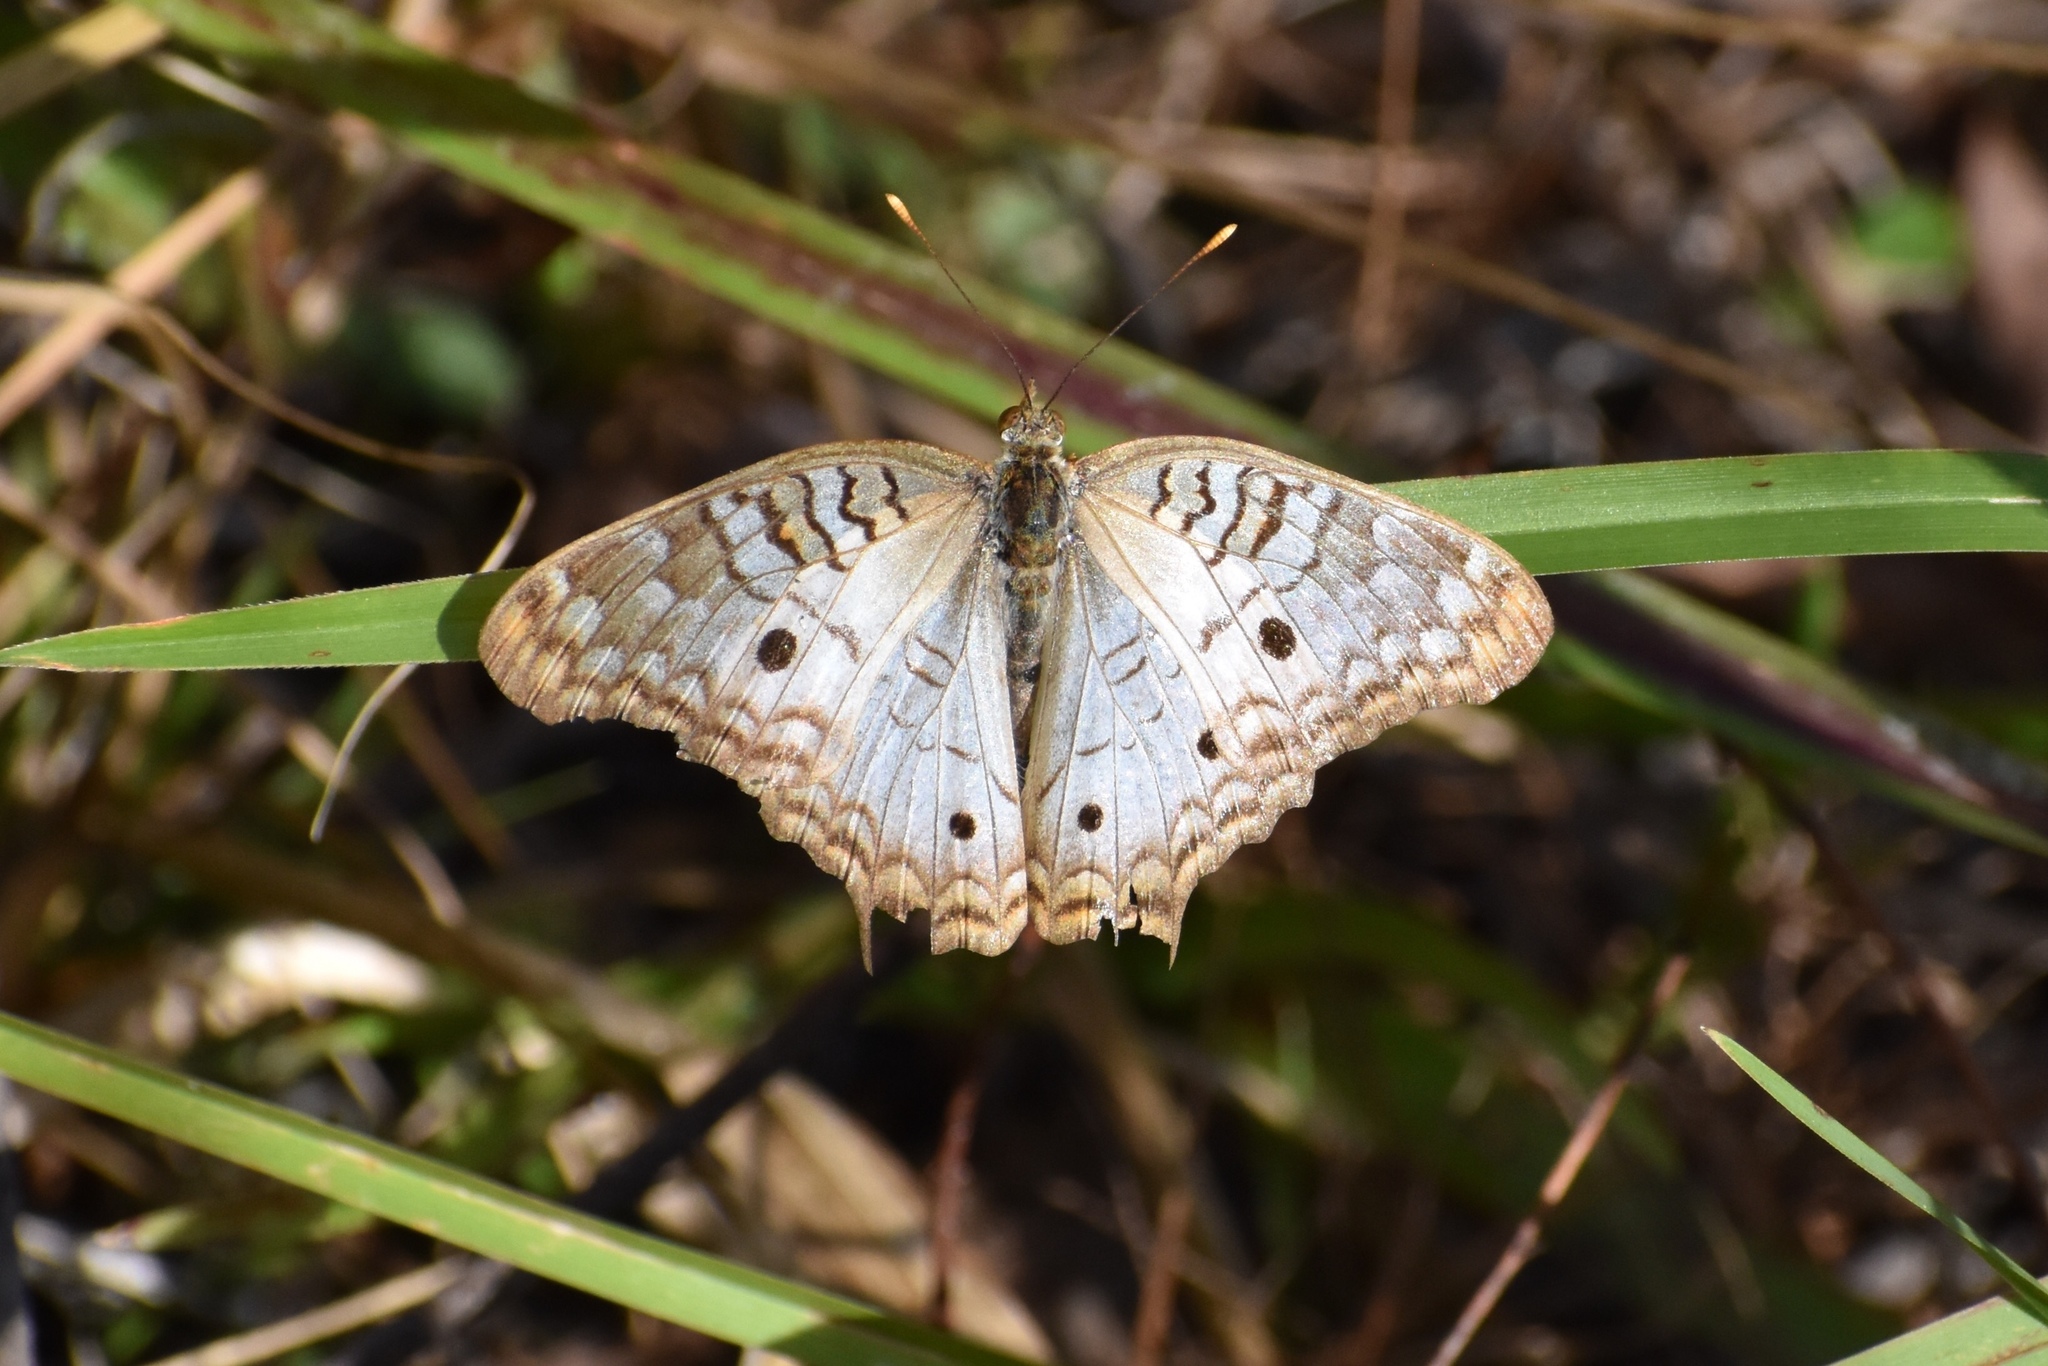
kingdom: Animalia
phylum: Arthropoda
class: Insecta
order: Lepidoptera
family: Nymphalidae
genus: Anartia
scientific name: Anartia jatrophae
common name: White peacock
